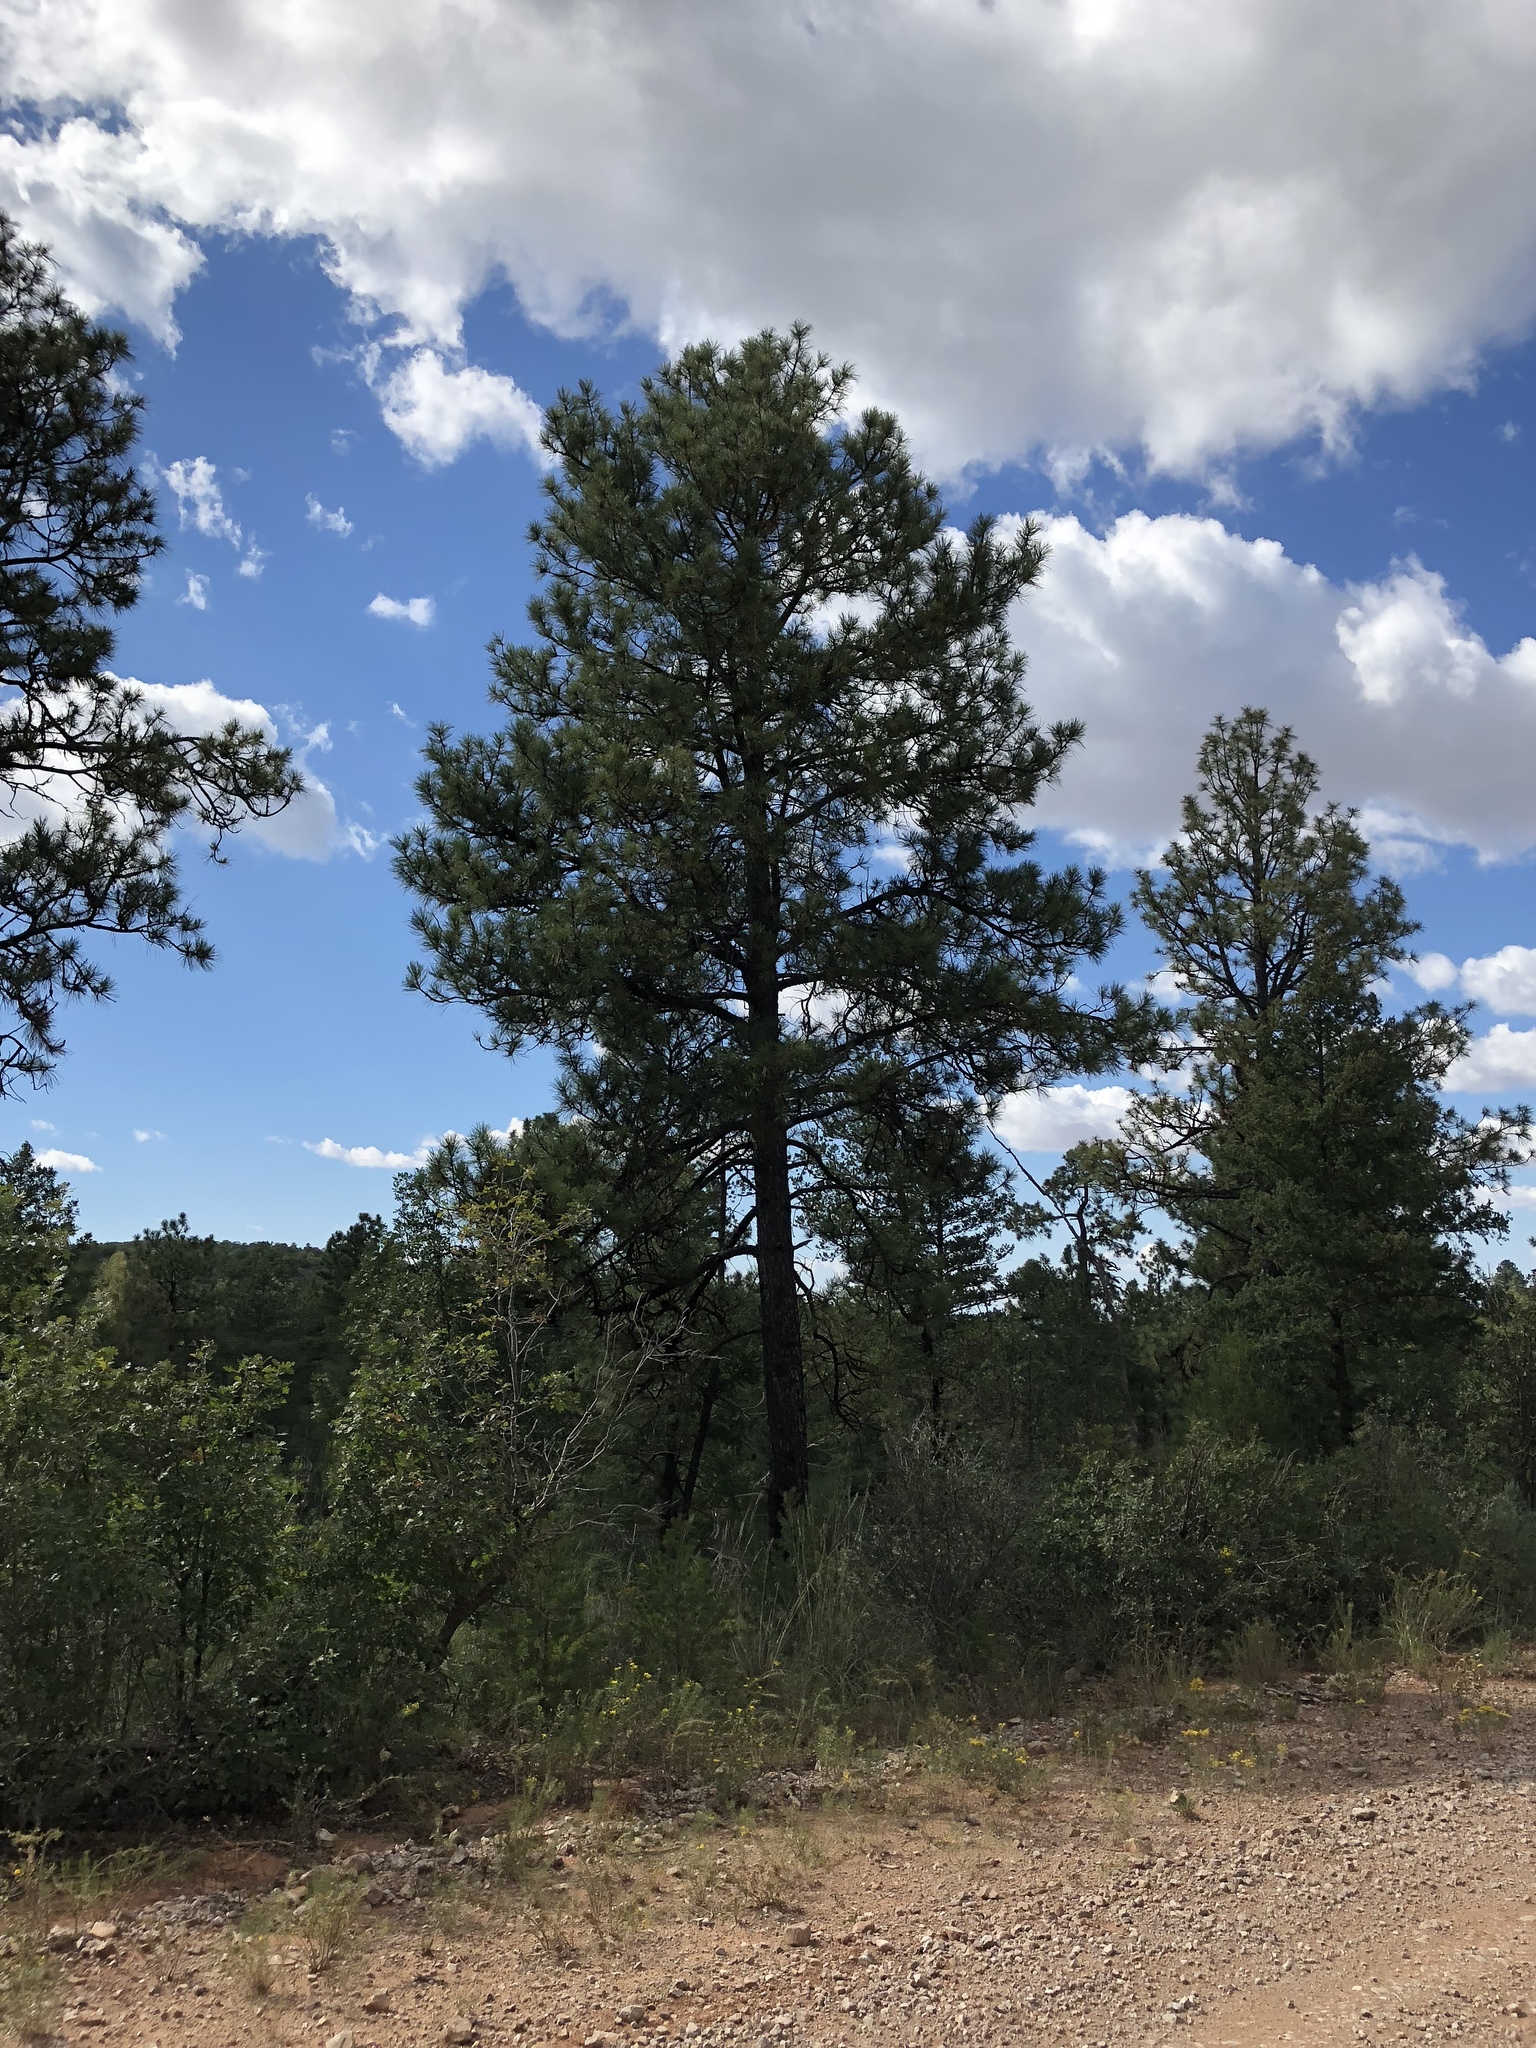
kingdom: Plantae
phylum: Tracheophyta
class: Pinopsida
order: Pinales
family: Pinaceae
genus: Pinus
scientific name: Pinus ponderosa
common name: Western yellow-pine
